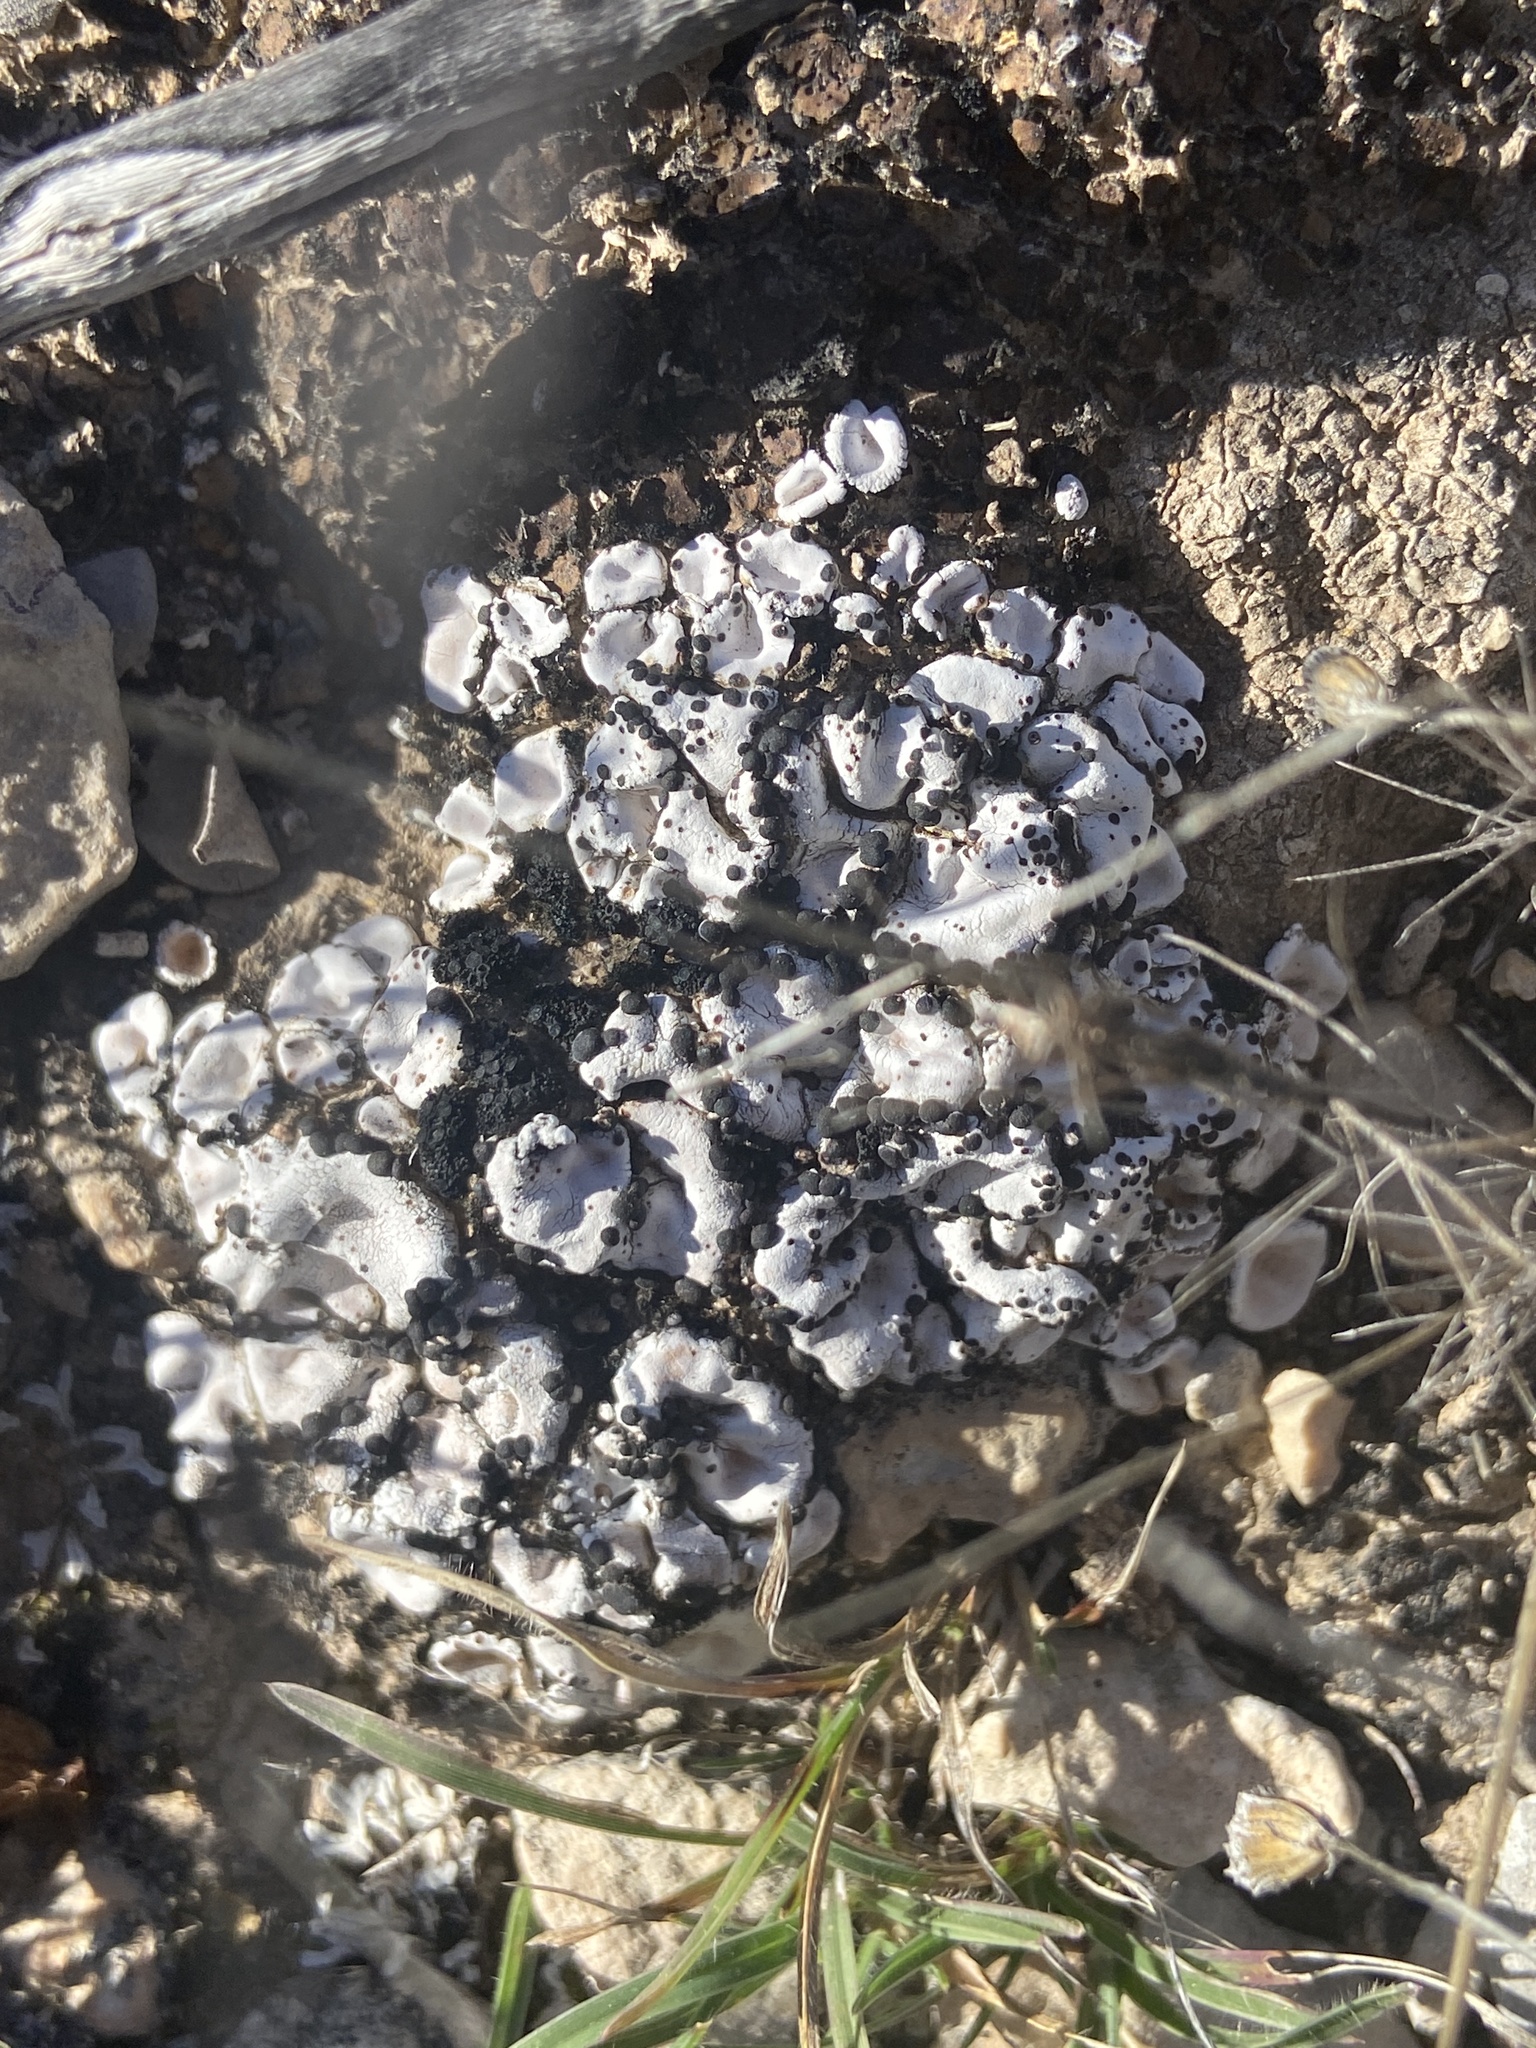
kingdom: Fungi
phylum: Ascomycota
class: Lecanoromycetes
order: Lecanorales
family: Psoraceae
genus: Psora
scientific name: Psora crenata
